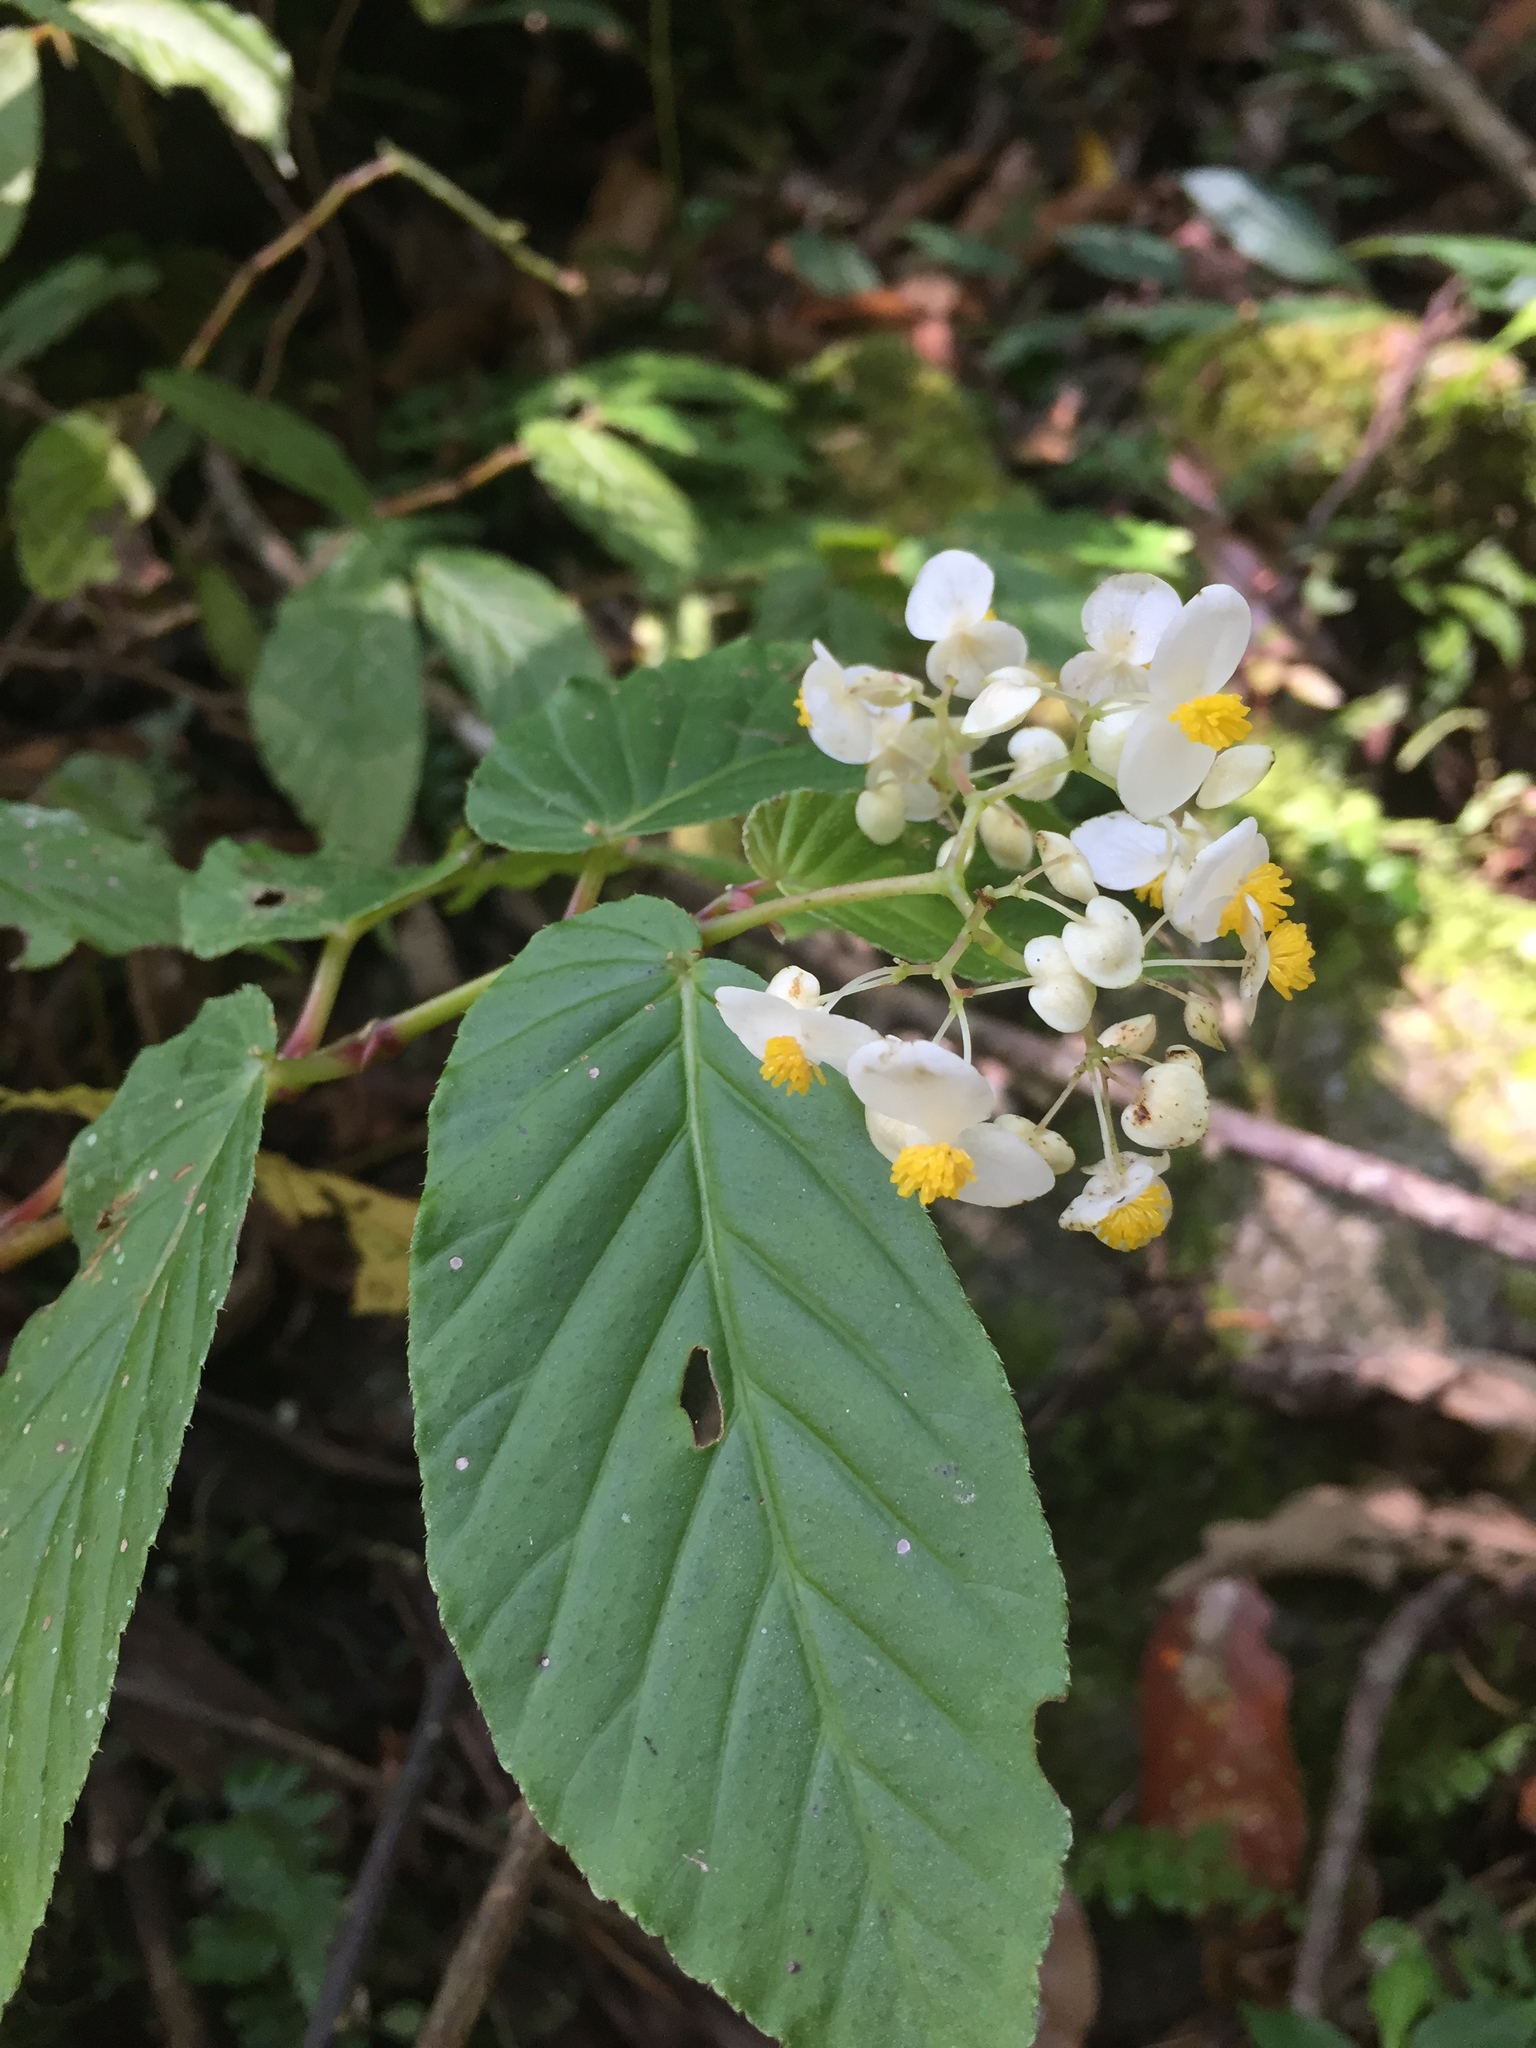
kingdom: Plantae
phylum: Tracheophyta
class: Magnoliopsida
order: Cucurbitales
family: Begoniaceae
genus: Begonia
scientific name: Begonia peruviana
